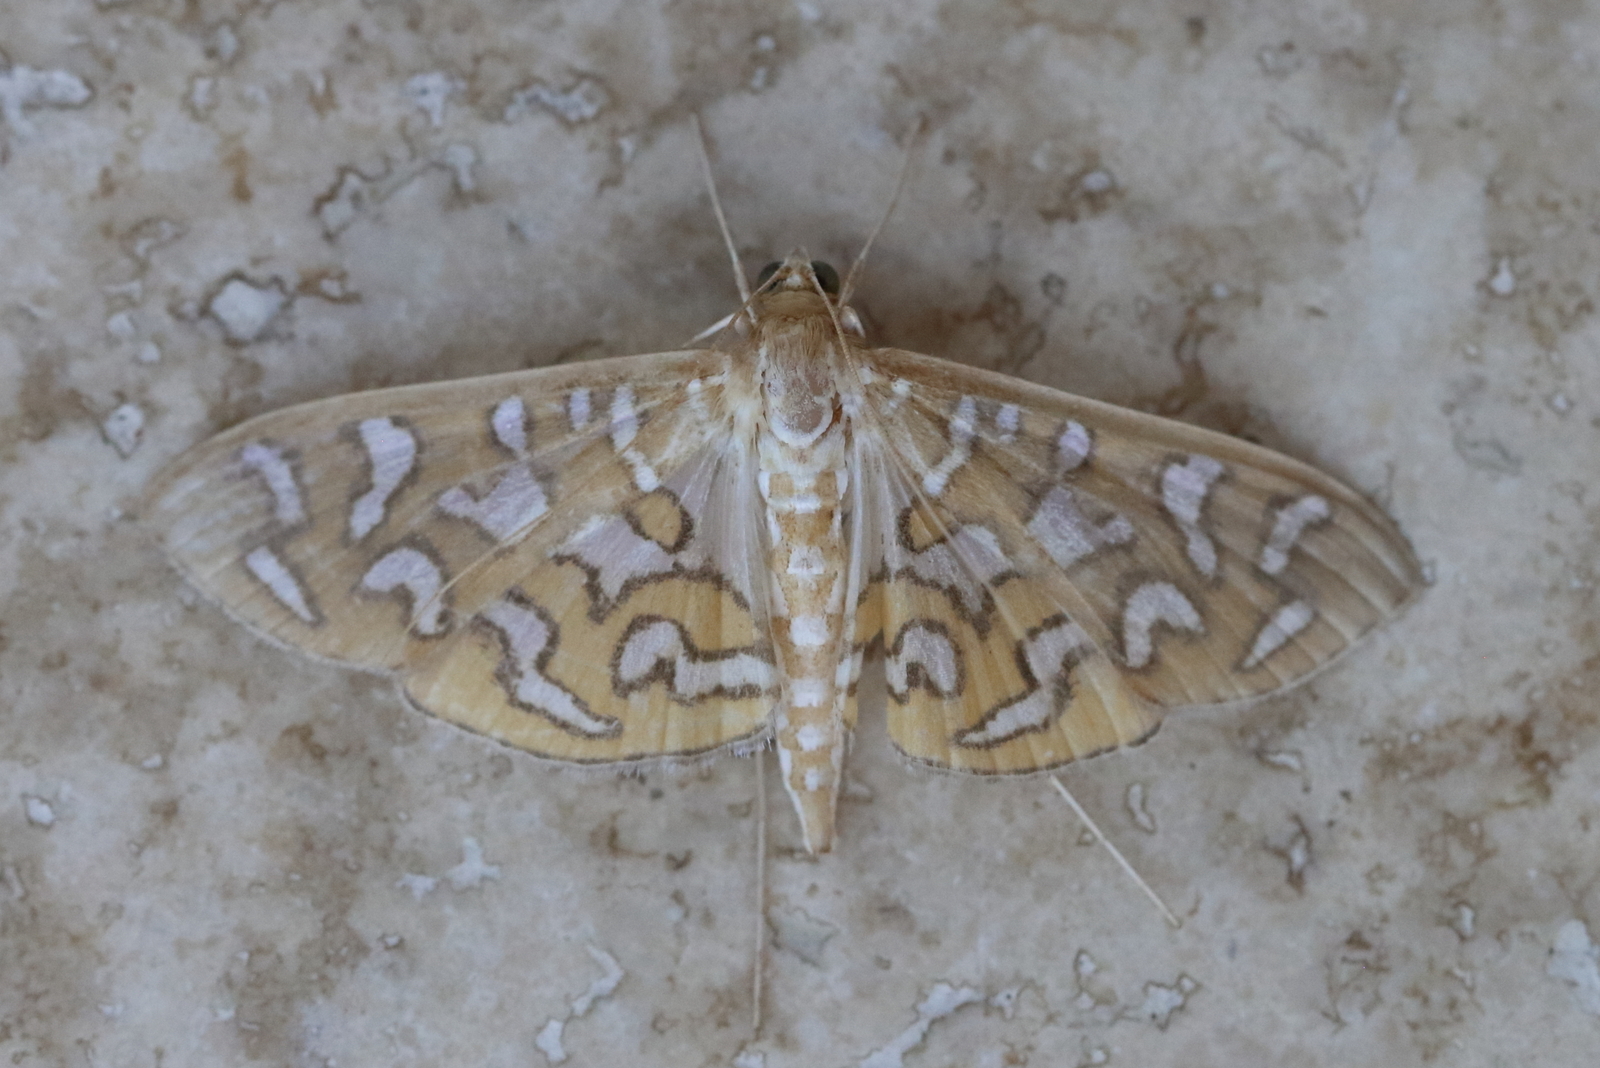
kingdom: Animalia
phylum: Arthropoda
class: Insecta
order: Lepidoptera
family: Crambidae
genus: Nausinoe
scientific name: Nausinoe perspectata
